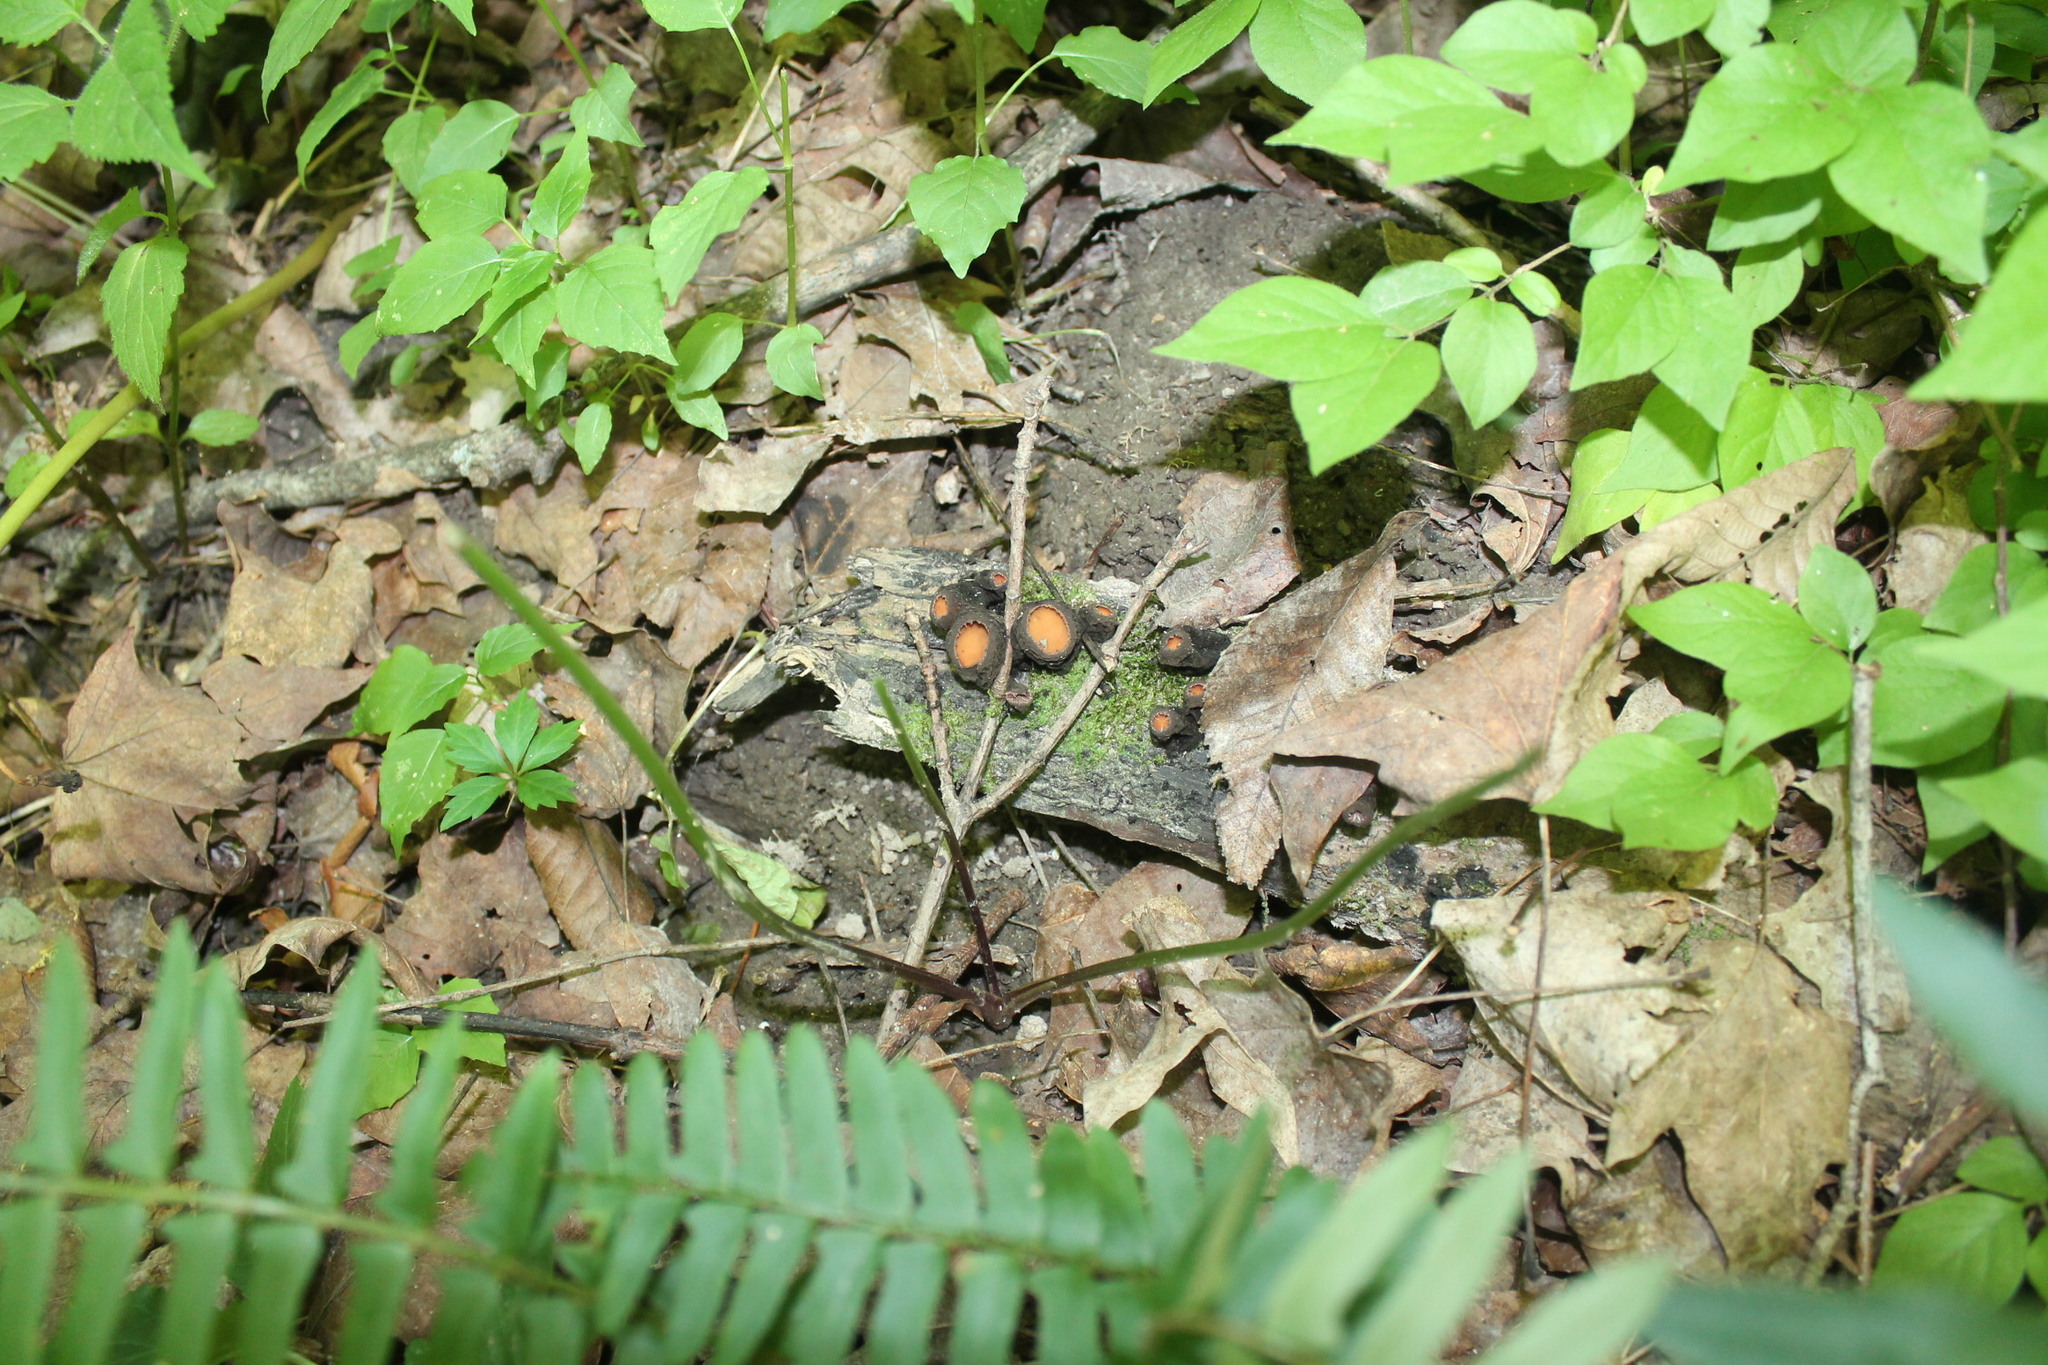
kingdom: Fungi
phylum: Ascomycota
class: Pezizomycetes
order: Pezizales
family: Sarcosomataceae
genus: Galiella
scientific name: Galiella rufa
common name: Hairy rubber cup
